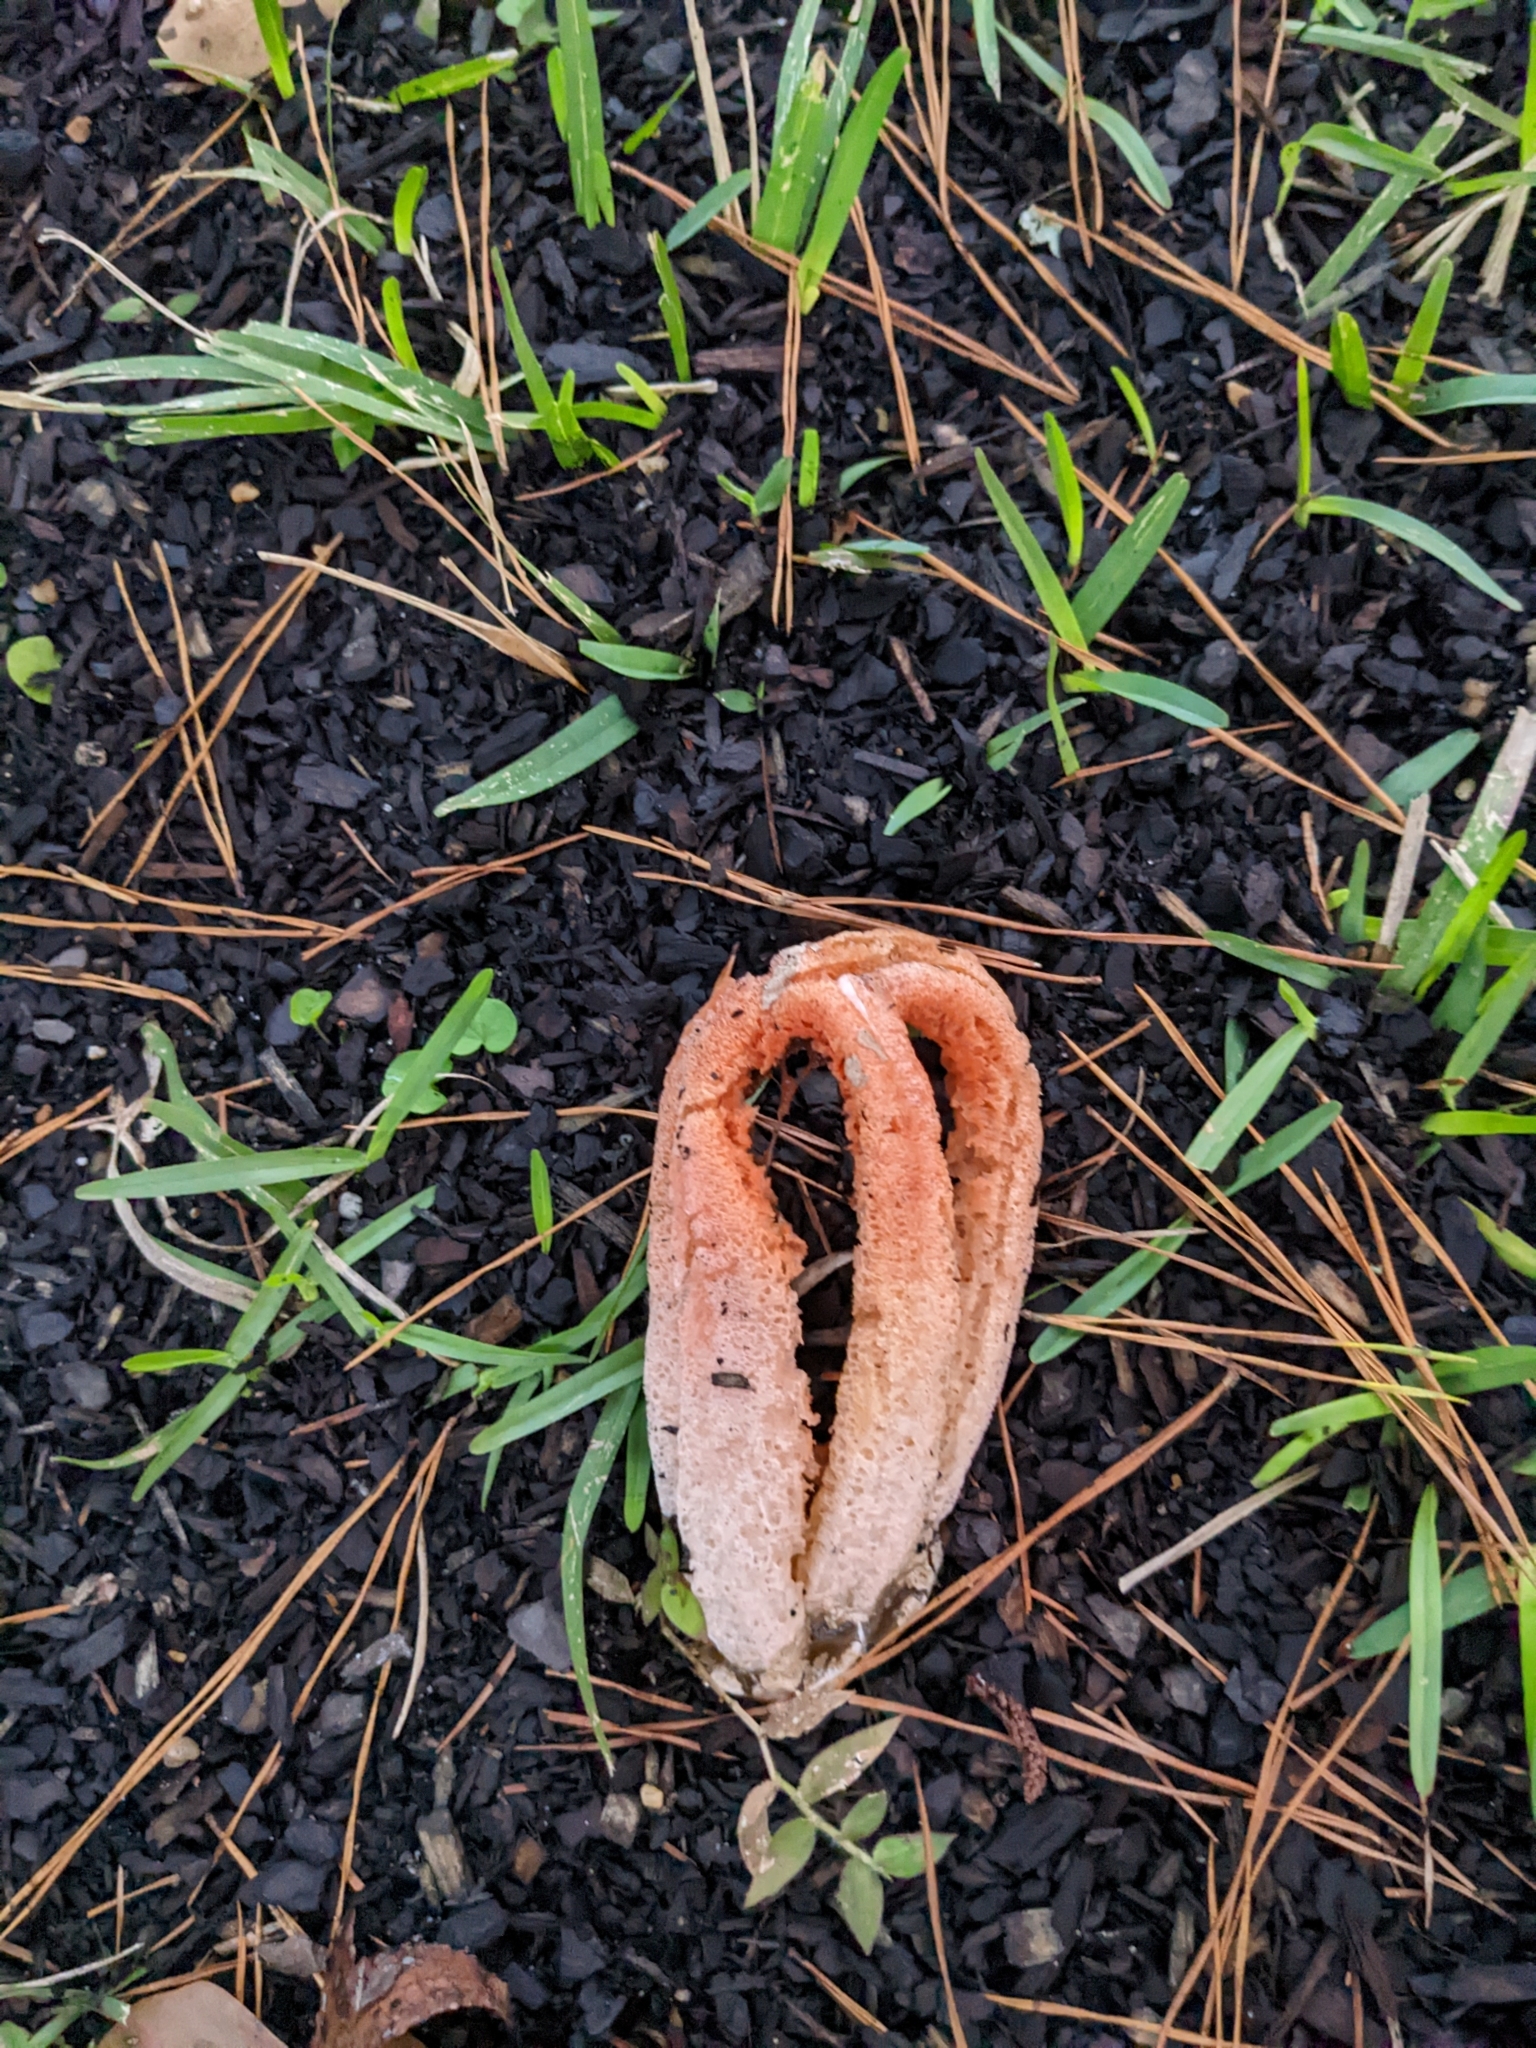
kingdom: Fungi
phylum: Basidiomycota
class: Agaricomycetes
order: Phallales
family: Phallaceae
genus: Clathrus
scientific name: Clathrus columnatus
